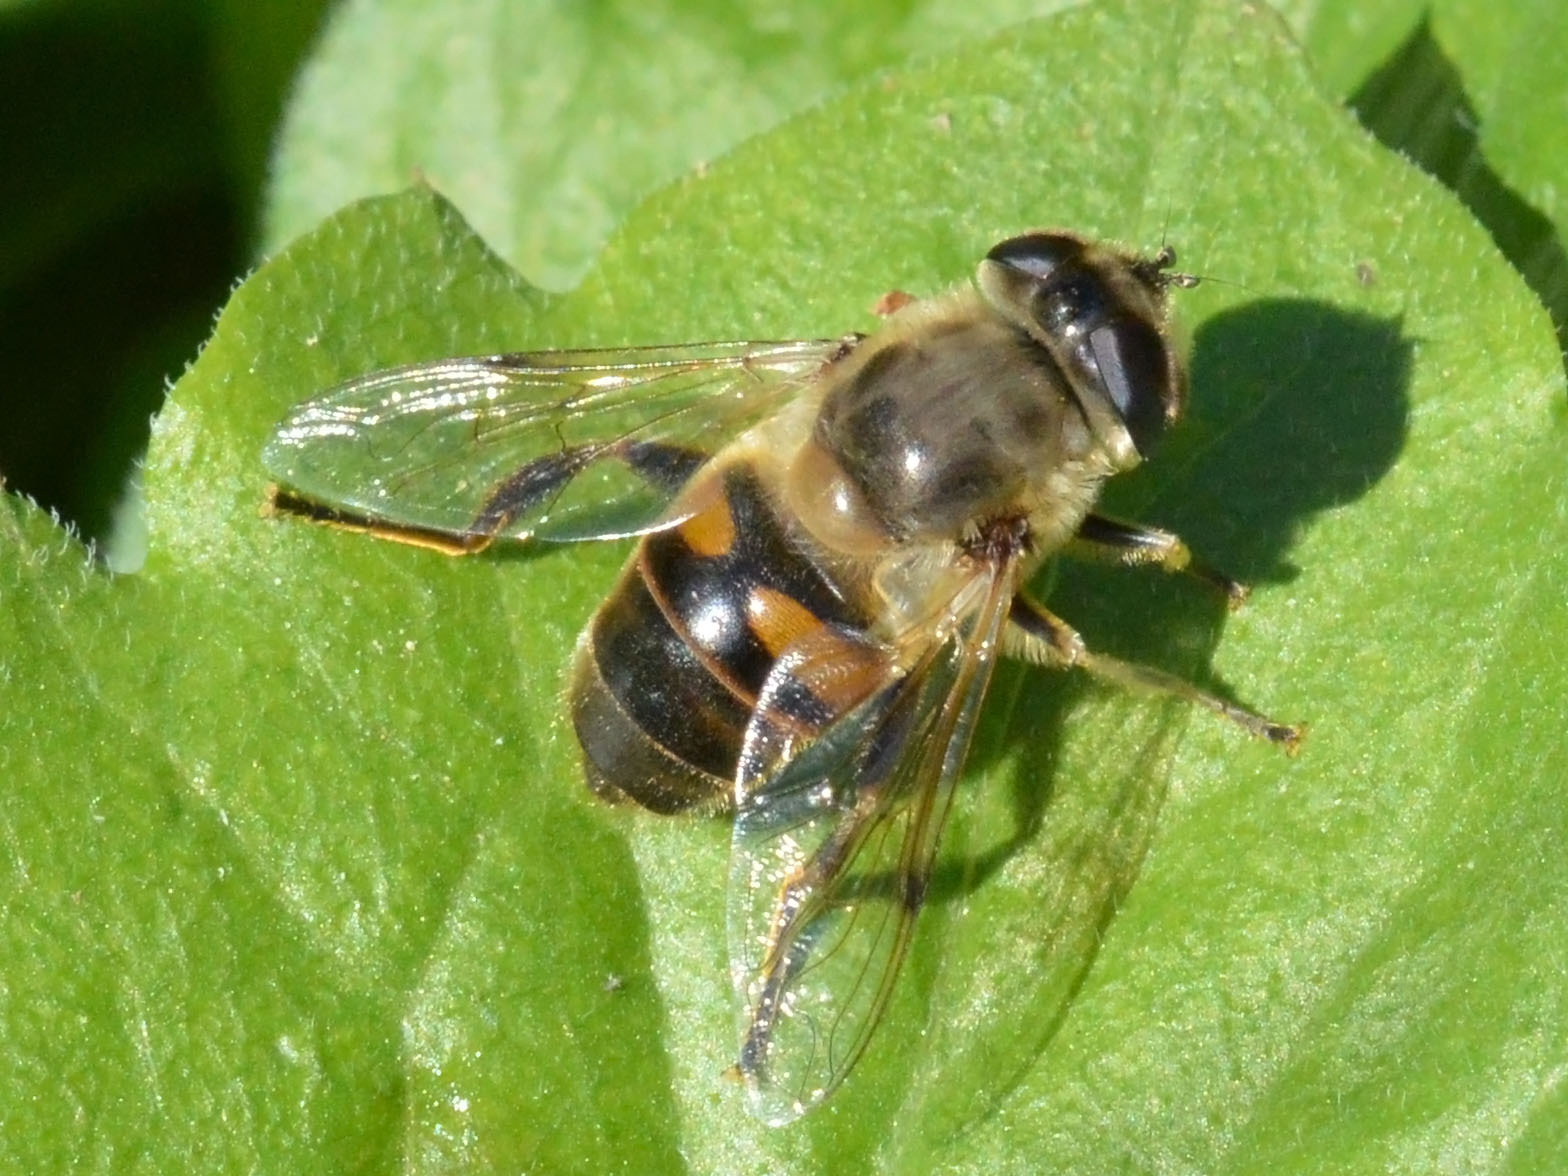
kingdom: Animalia
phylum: Arthropoda
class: Insecta
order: Diptera
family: Syrphidae
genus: Eristalis
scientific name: Eristalis tenax
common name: Drone fly
